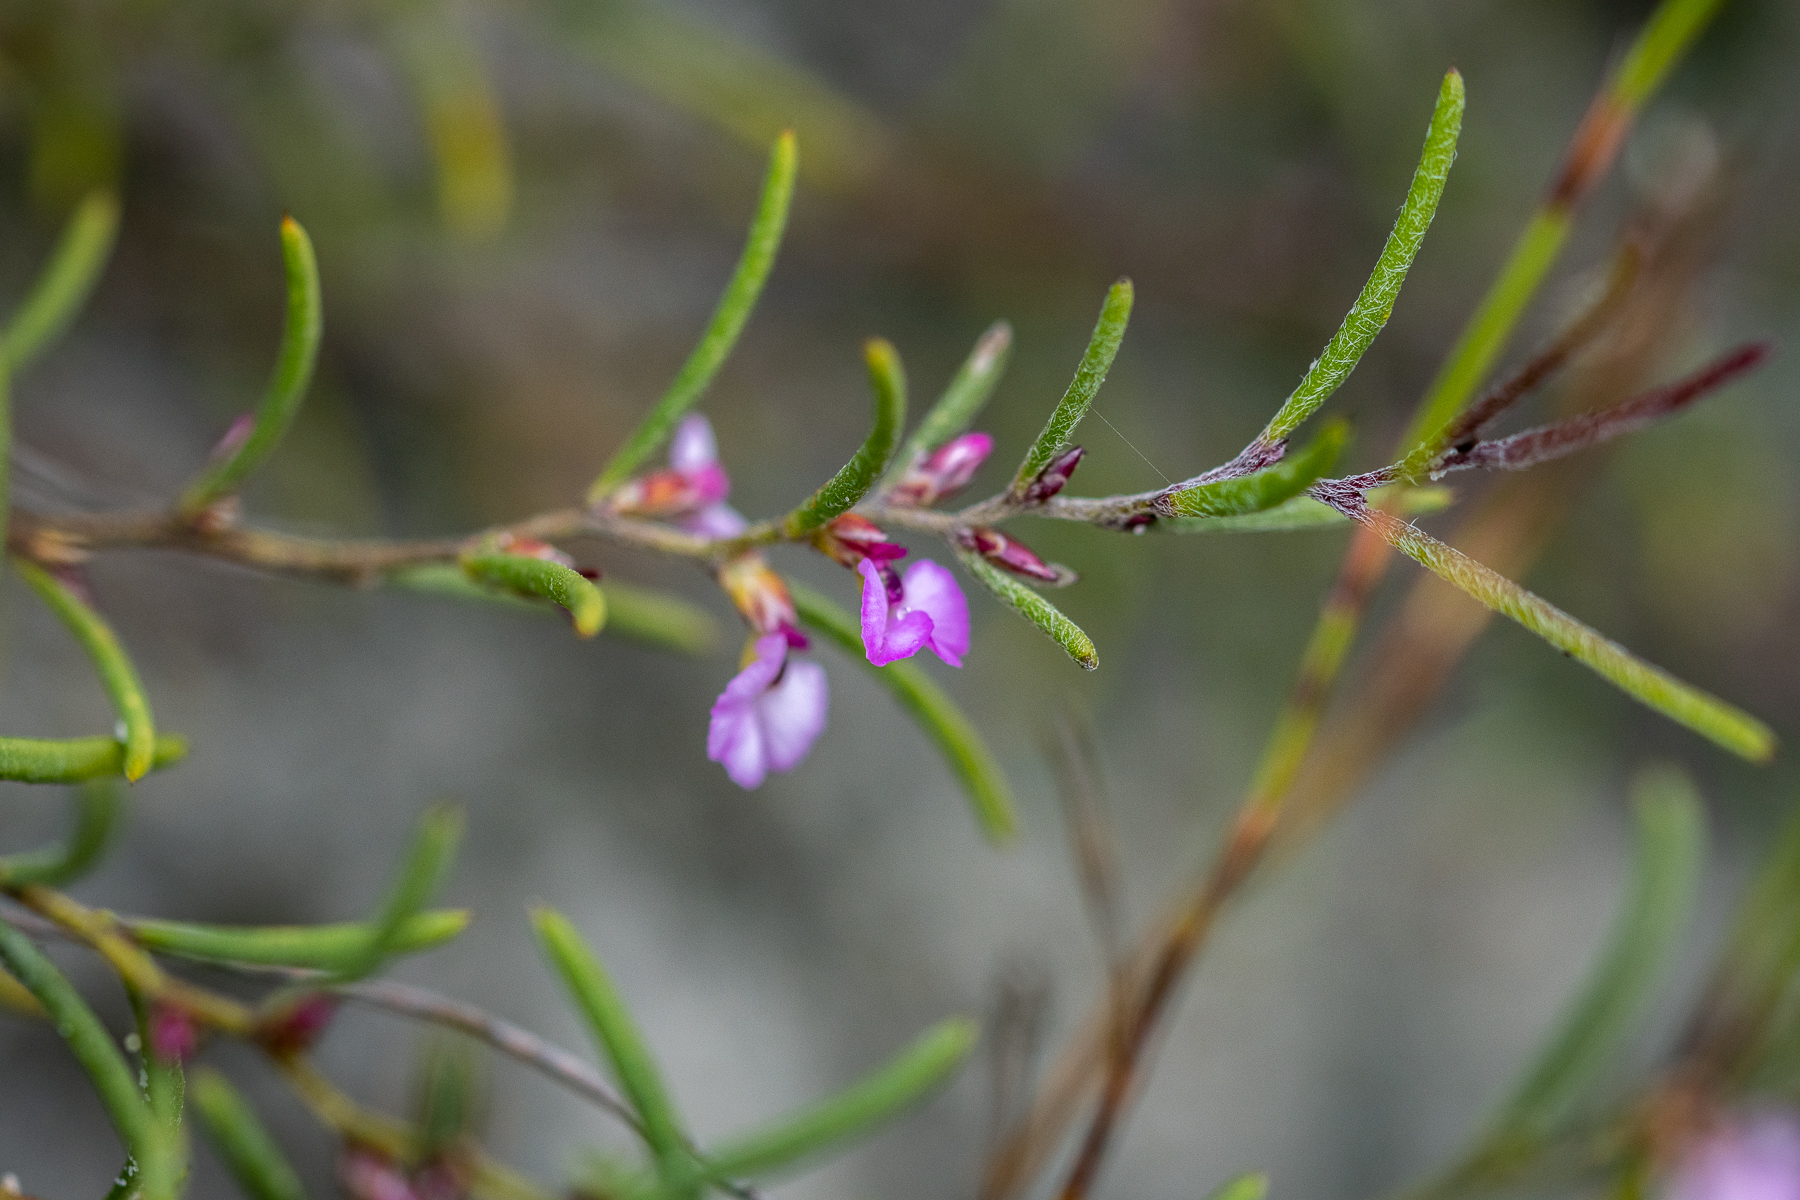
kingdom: Plantae
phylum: Tracheophyta
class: Magnoliopsida
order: Fabales
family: Polygalaceae
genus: Muraltia
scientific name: Muraltia cyclolopha
